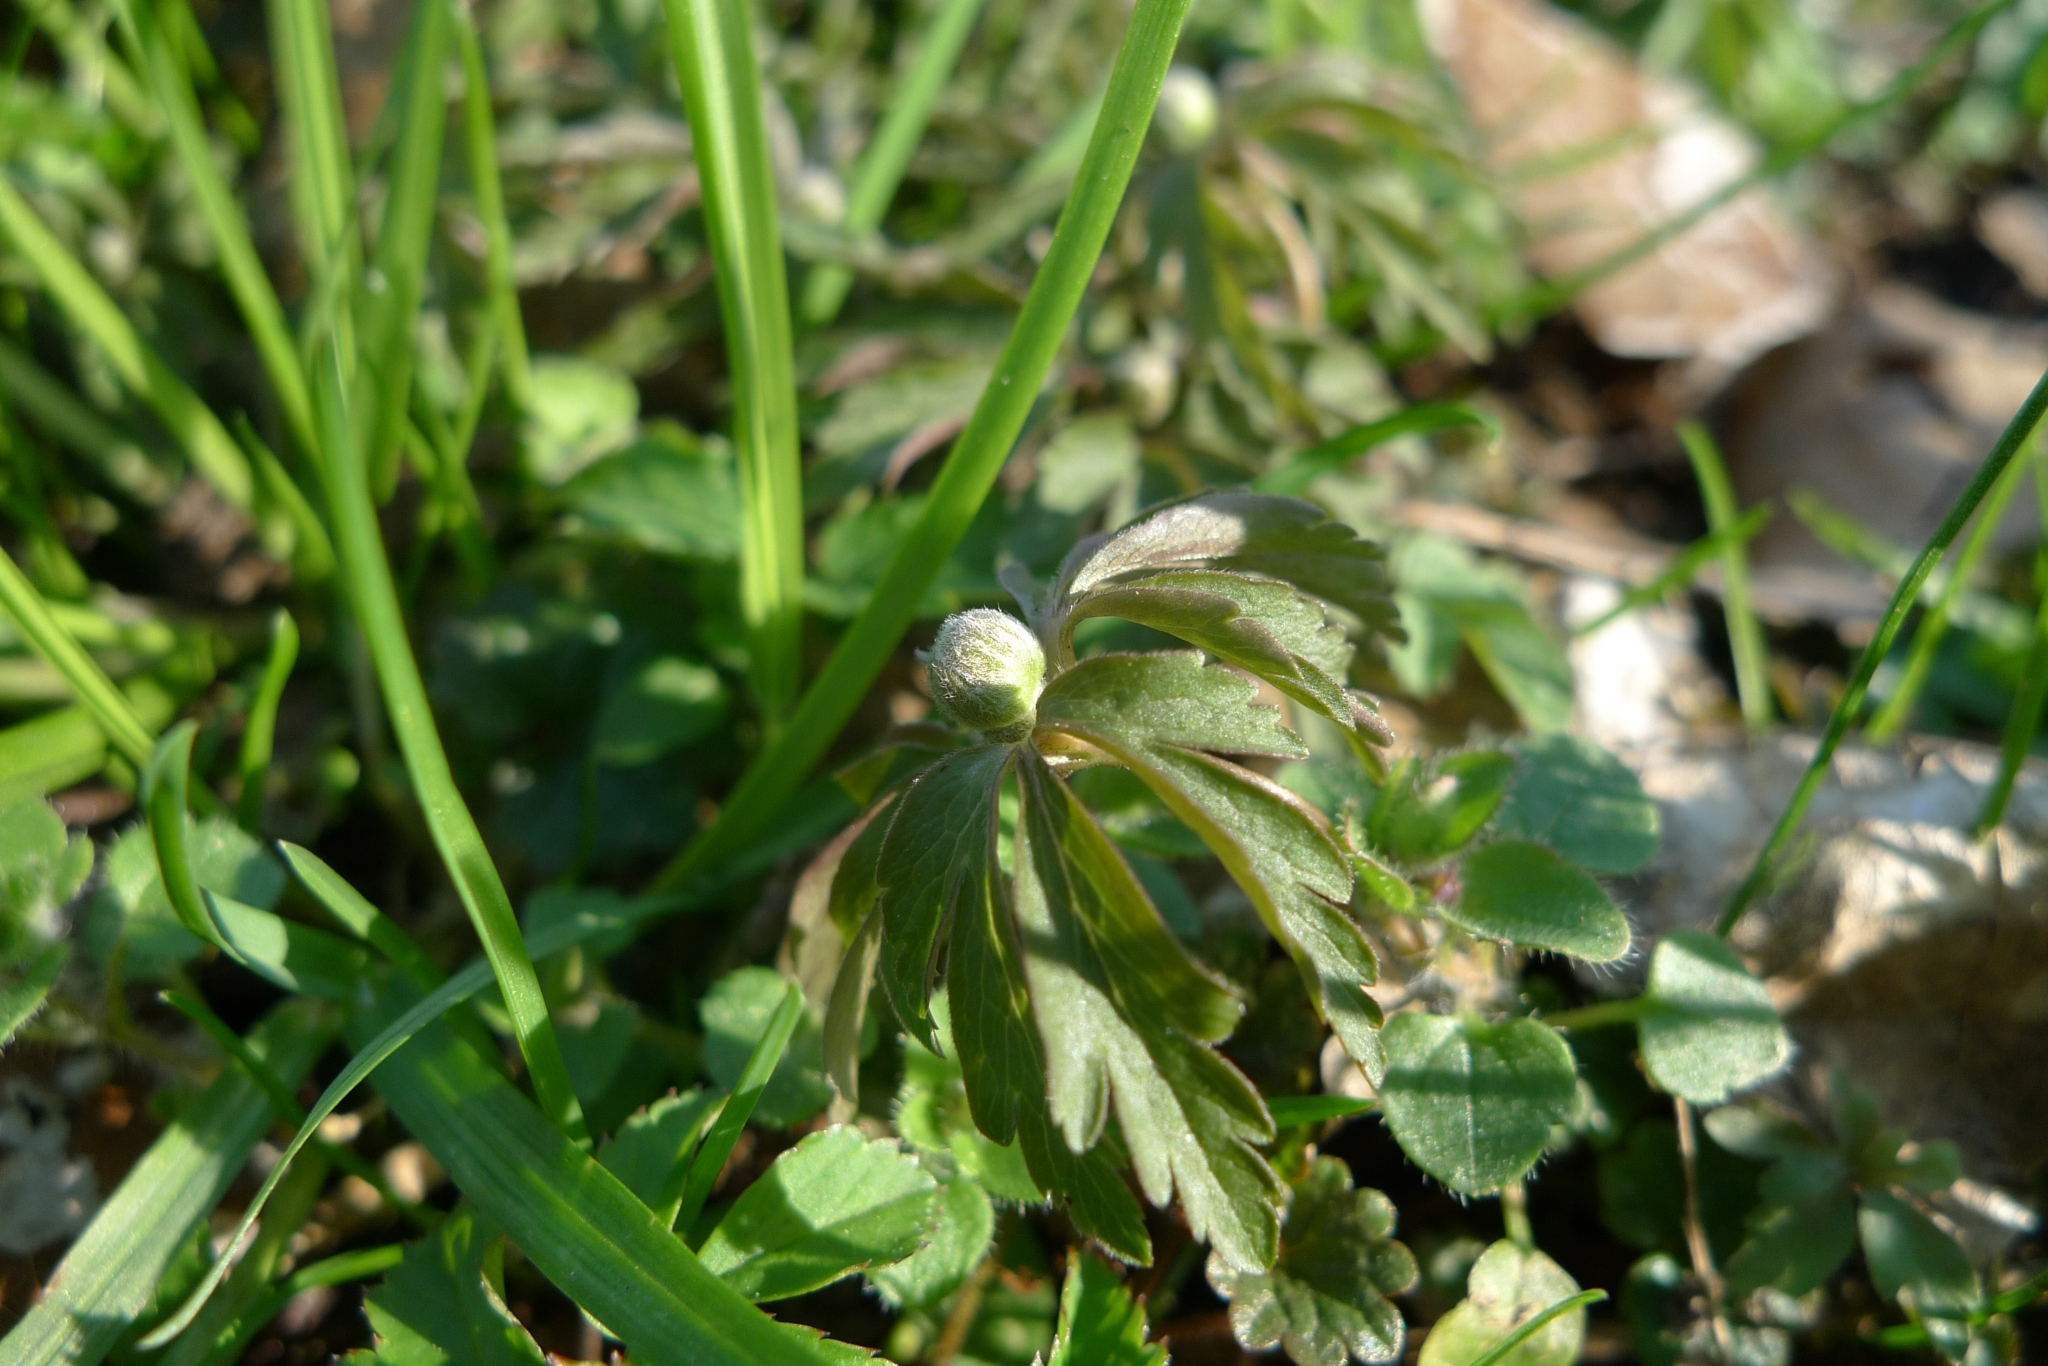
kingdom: Plantae
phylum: Tracheophyta
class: Magnoliopsida
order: Ranunculales
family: Ranunculaceae
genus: Anemone
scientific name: Anemone ranunculoides
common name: Yellow anemone
